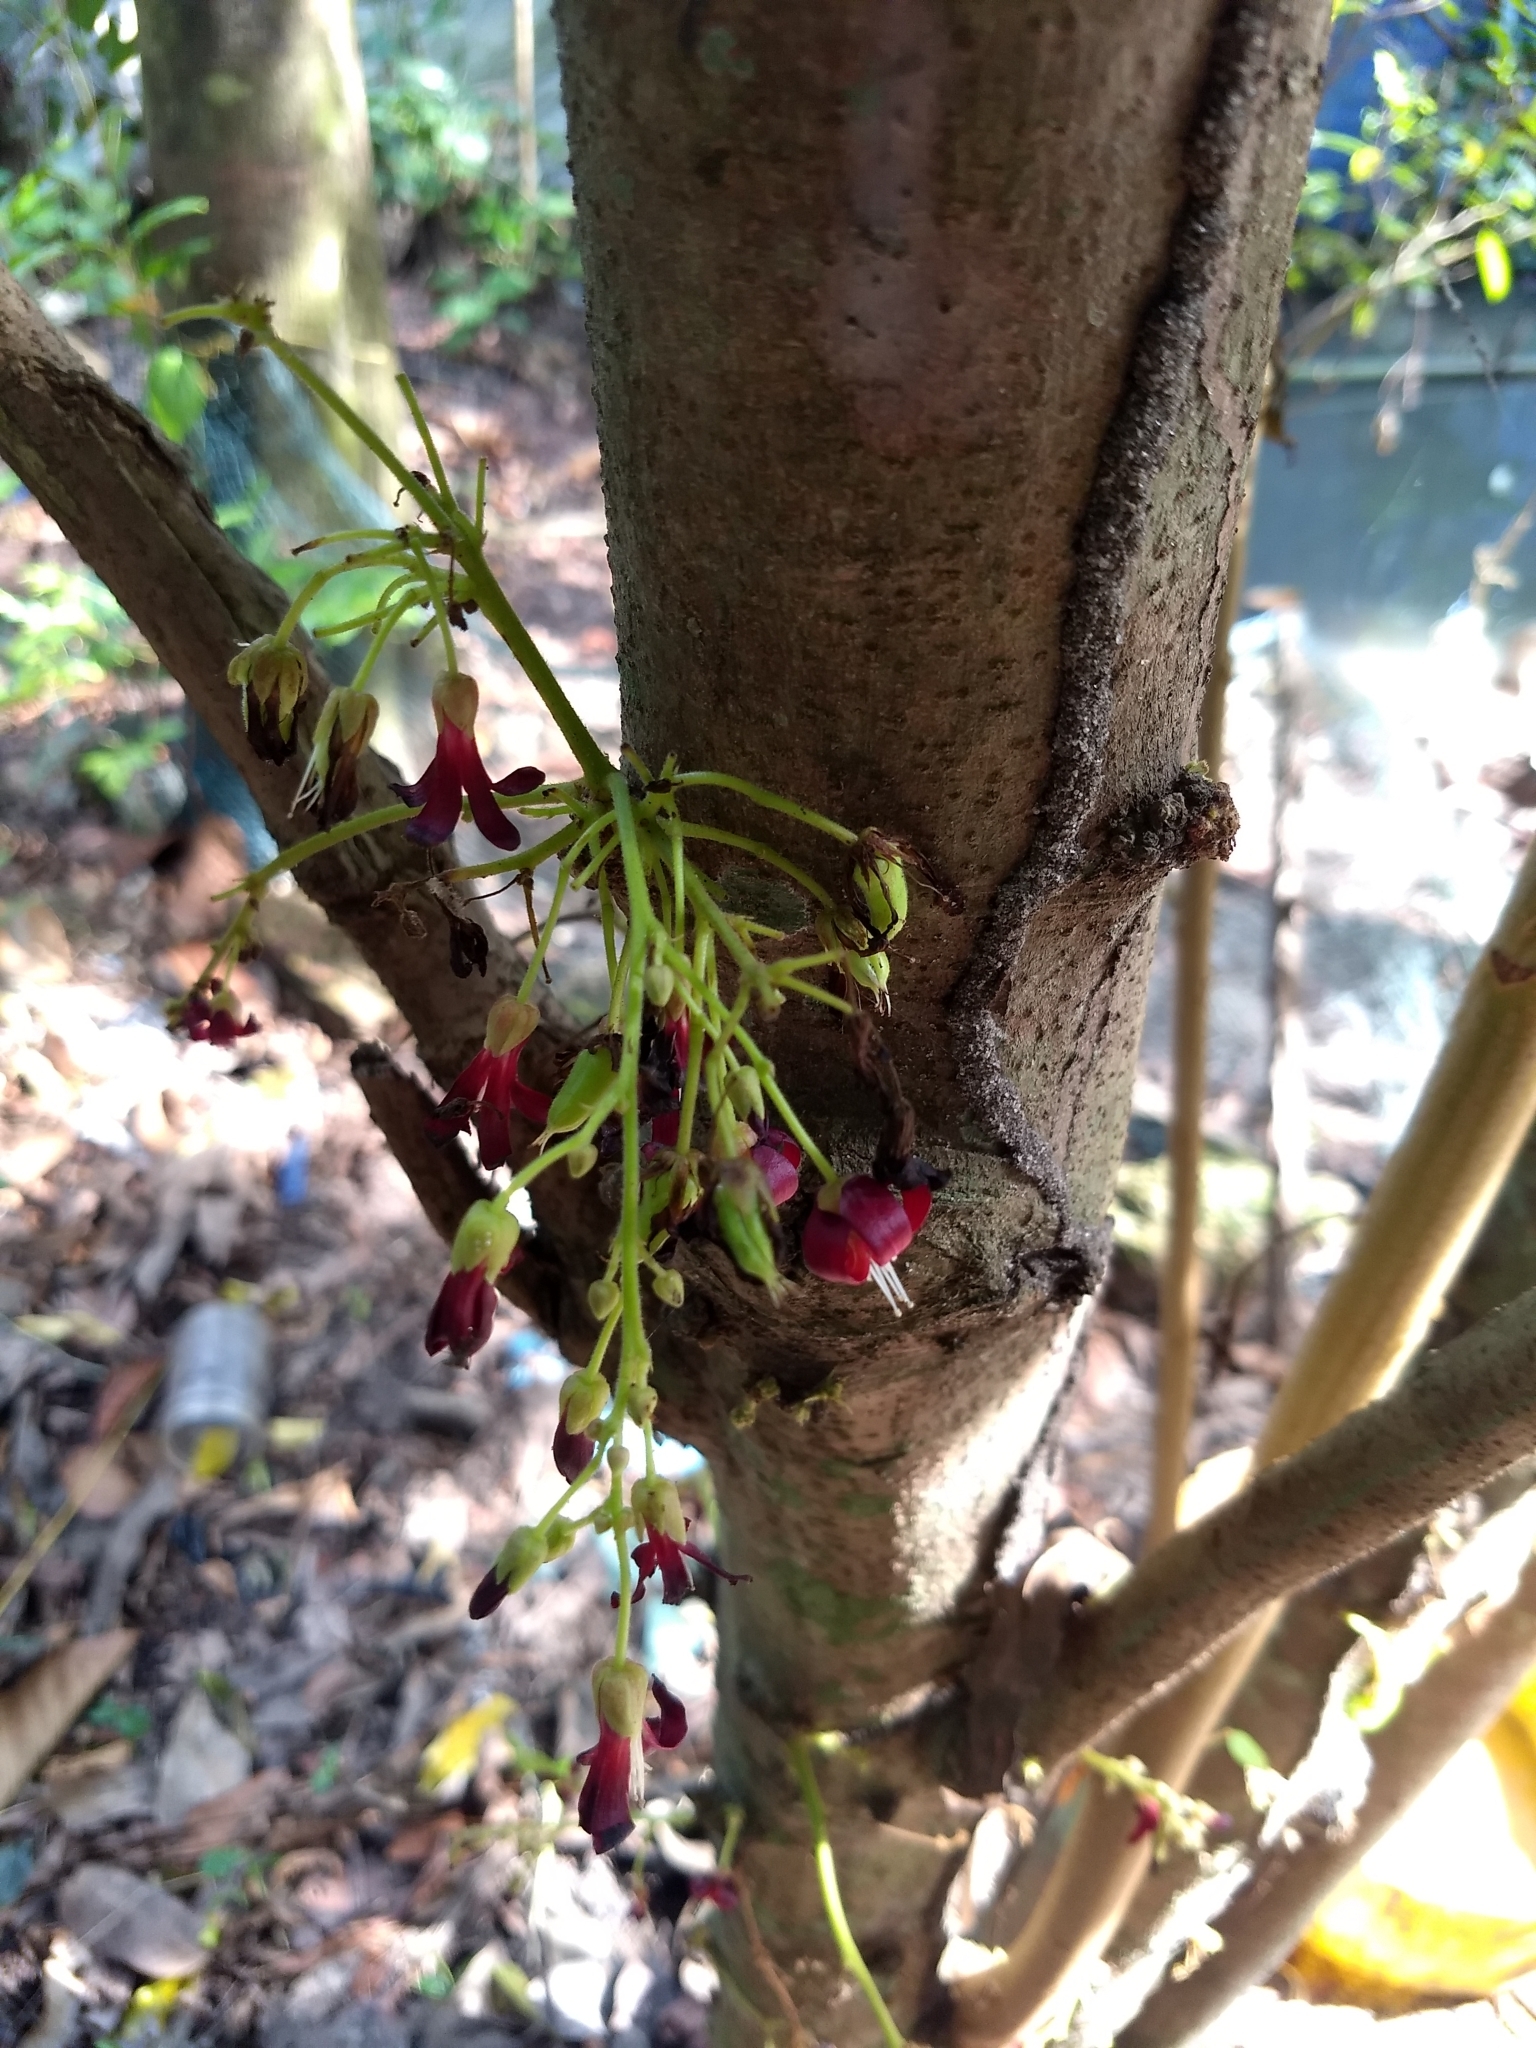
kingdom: Plantae
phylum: Tracheophyta
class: Magnoliopsida
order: Oxalidales
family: Oxalidaceae
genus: Averrhoa
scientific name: Averrhoa bilimbi
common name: Bilimbi
